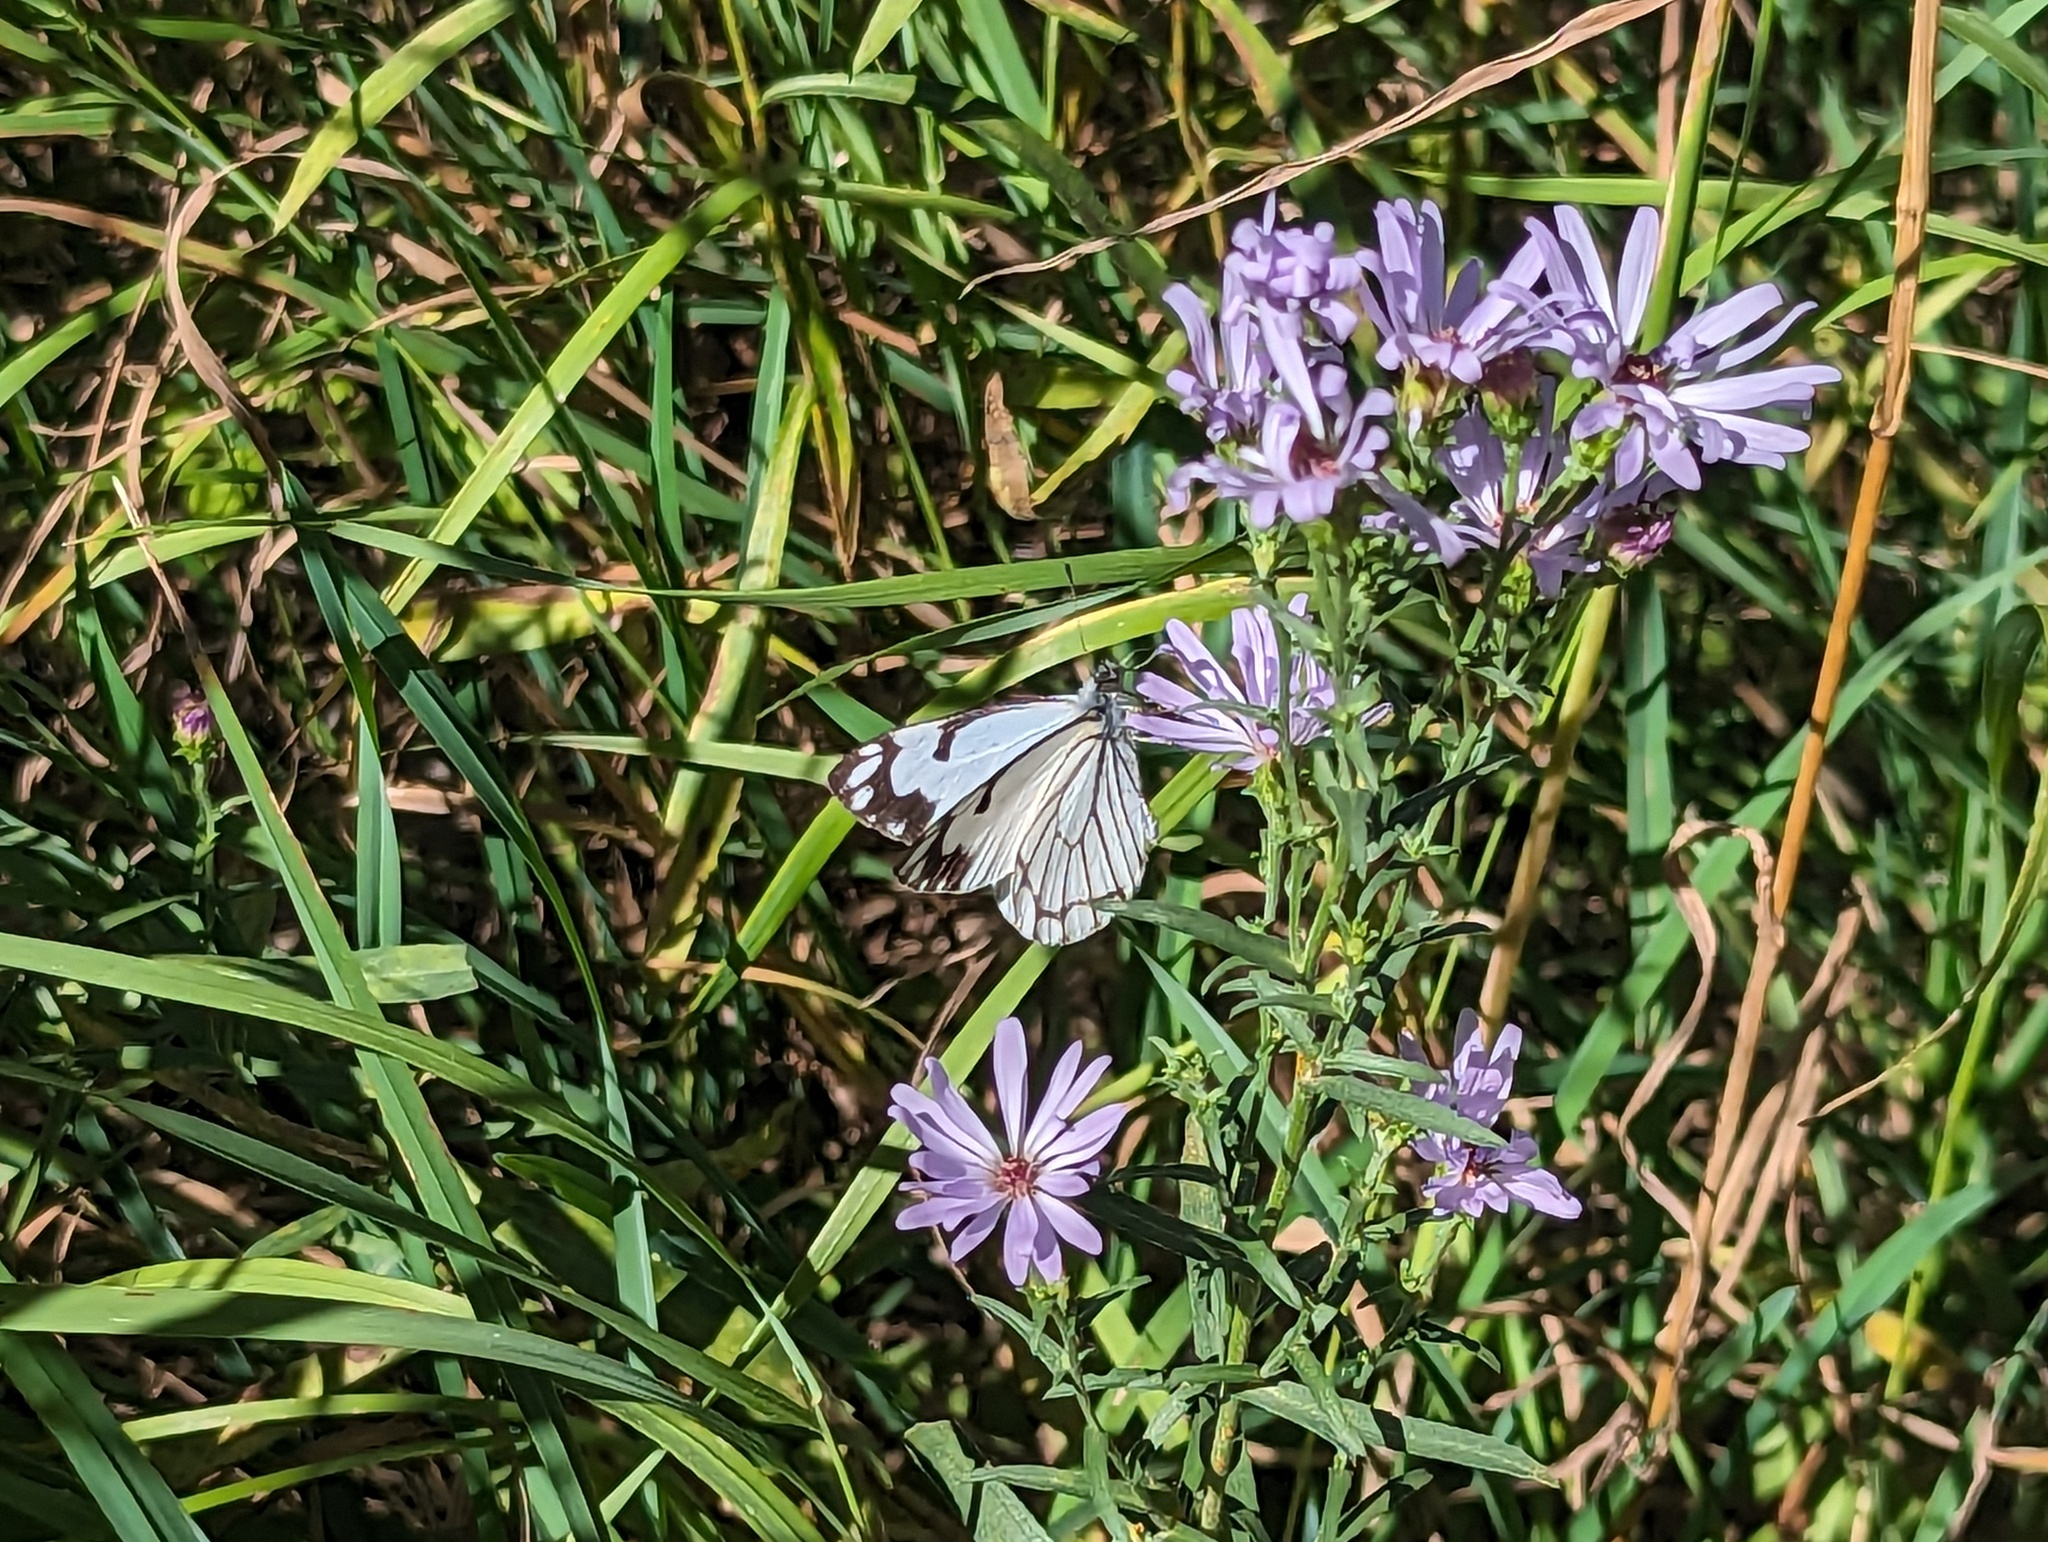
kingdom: Animalia
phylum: Arthropoda
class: Insecta
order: Lepidoptera
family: Pieridae
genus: Neophasia
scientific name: Neophasia menapia
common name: Pine white
